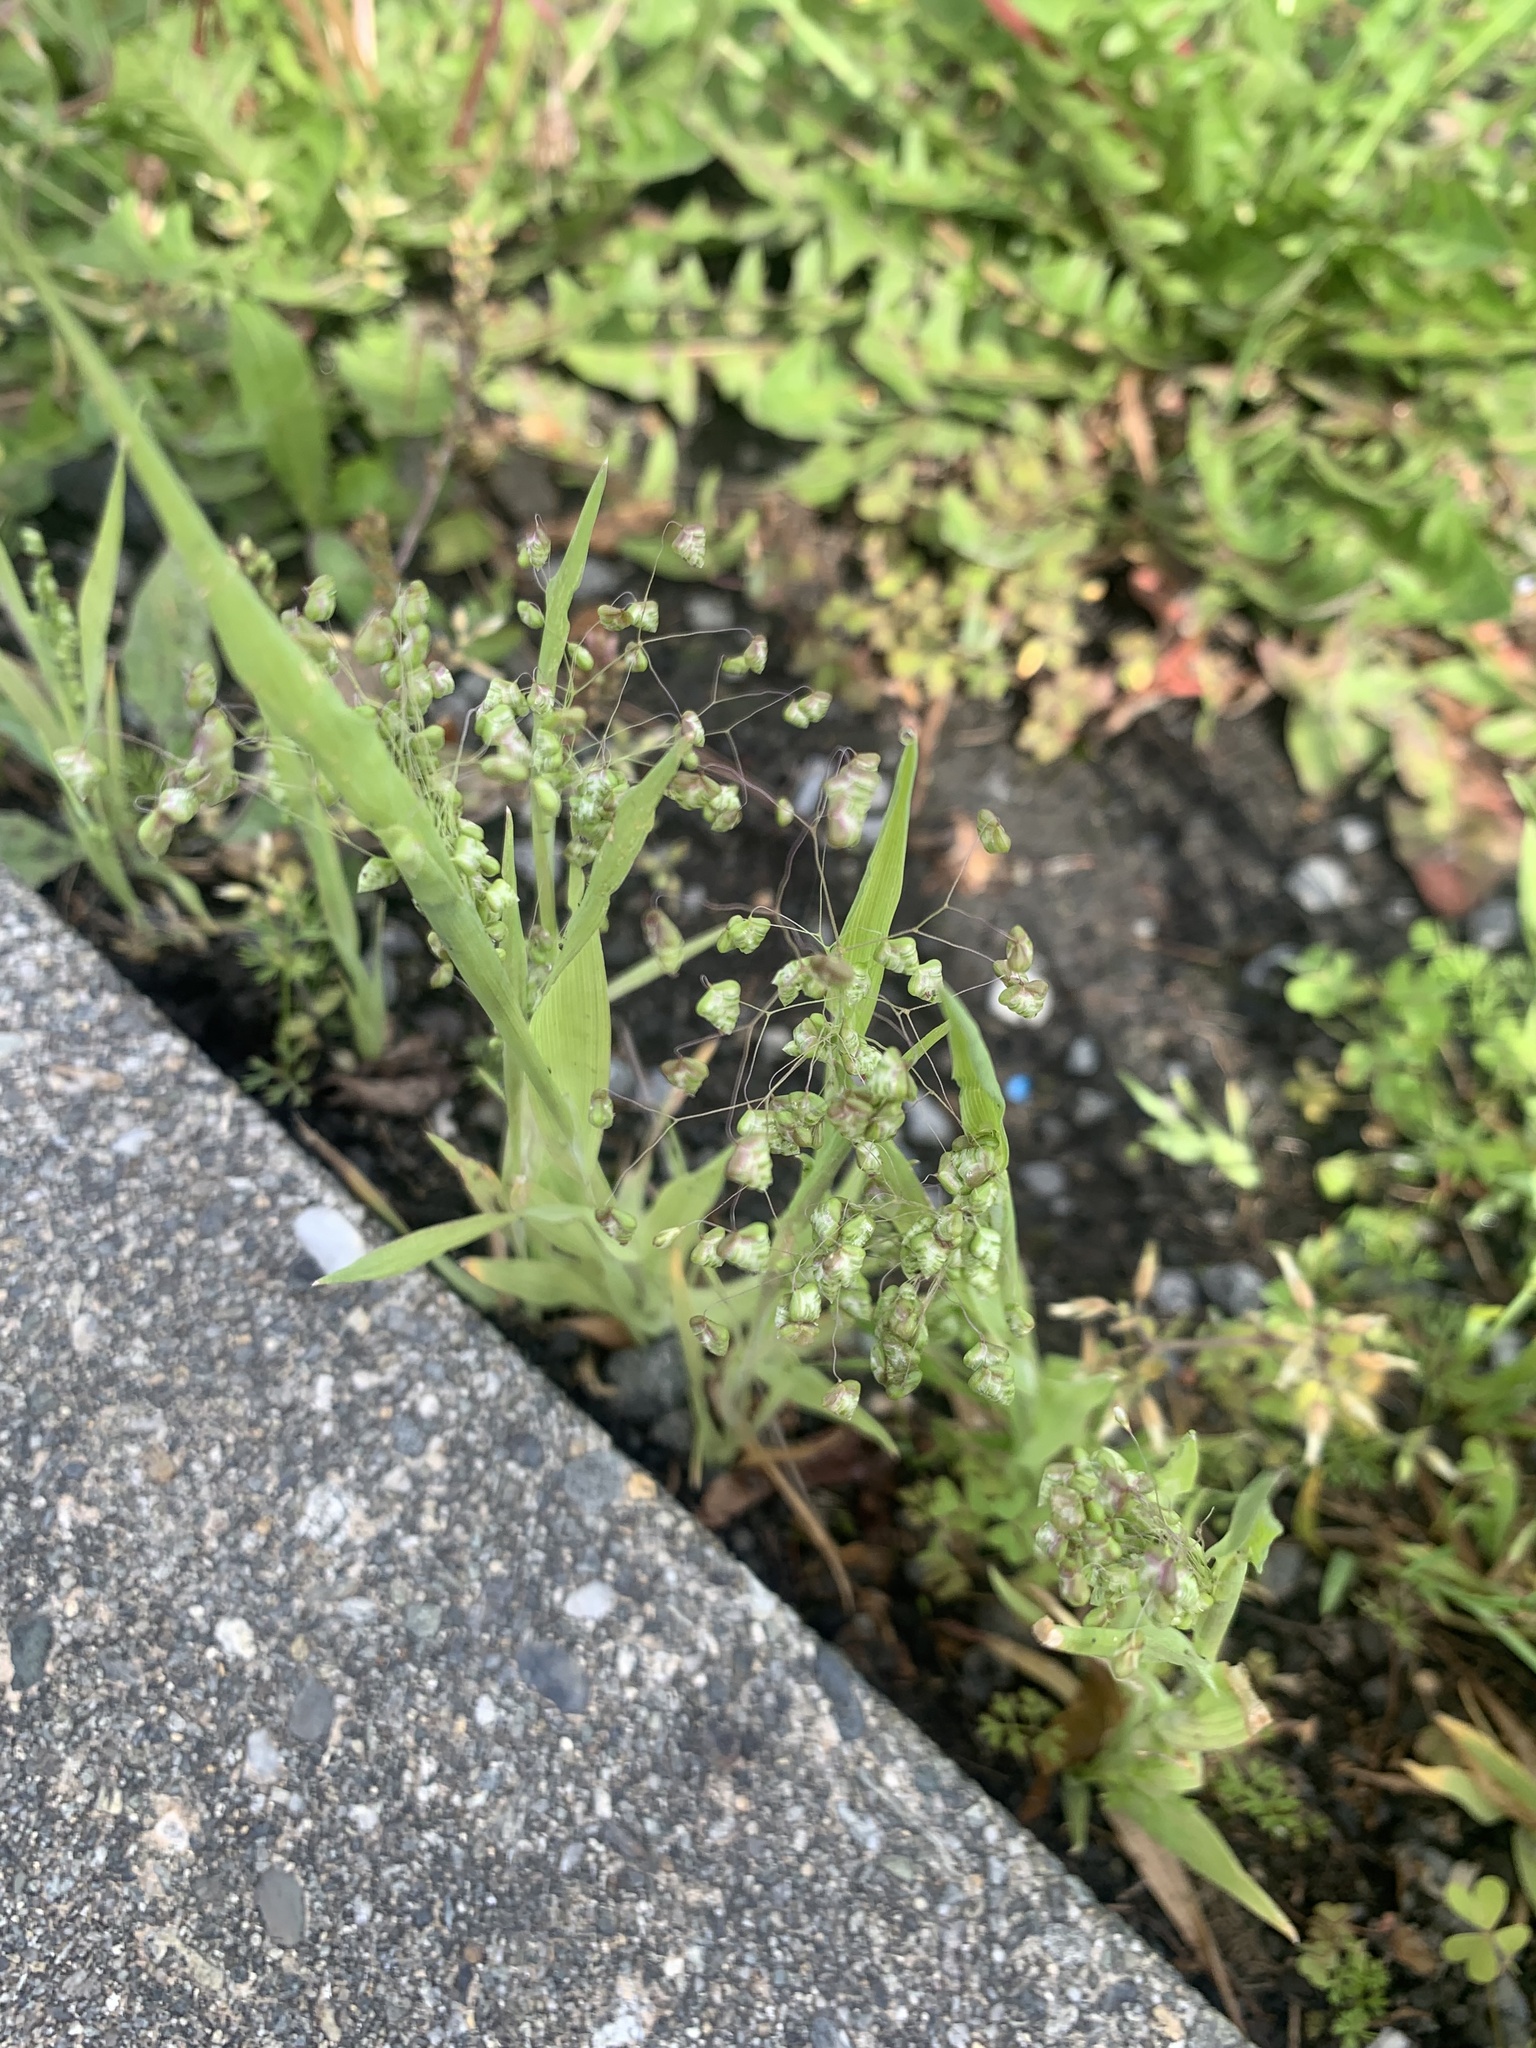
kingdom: Plantae
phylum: Tracheophyta
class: Liliopsida
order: Poales
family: Poaceae
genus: Briza
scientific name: Briza minor
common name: Lesser quaking-grass
